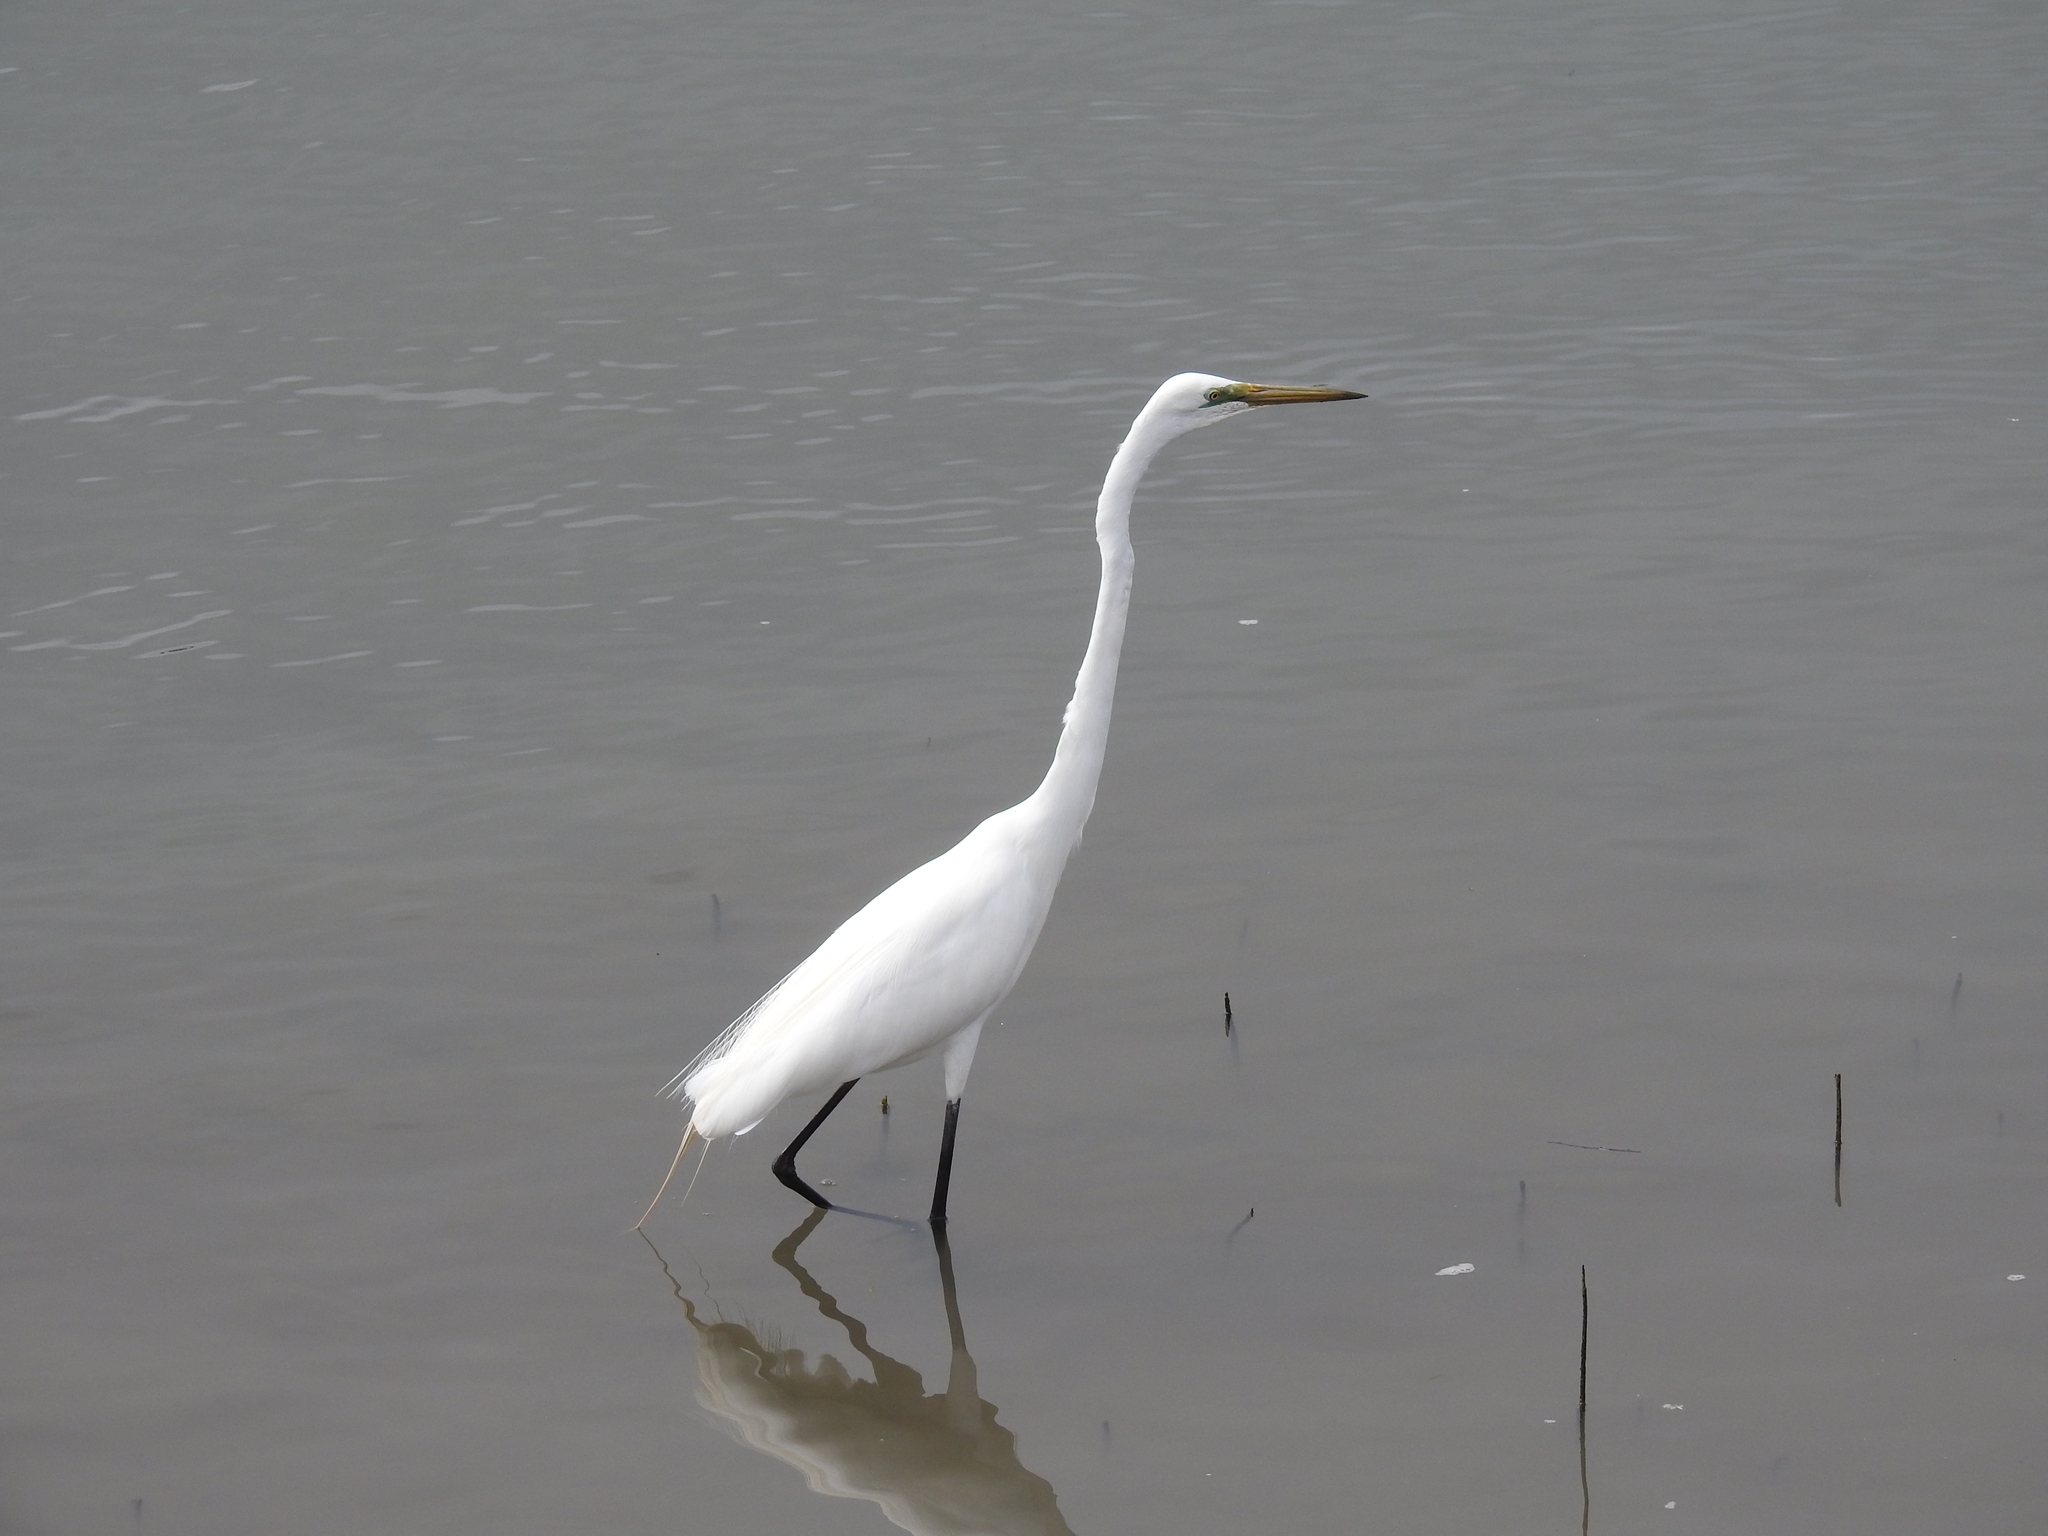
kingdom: Animalia
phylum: Chordata
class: Aves
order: Pelecaniformes
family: Ardeidae
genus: Ardea
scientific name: Ardea alba
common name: Great egret
